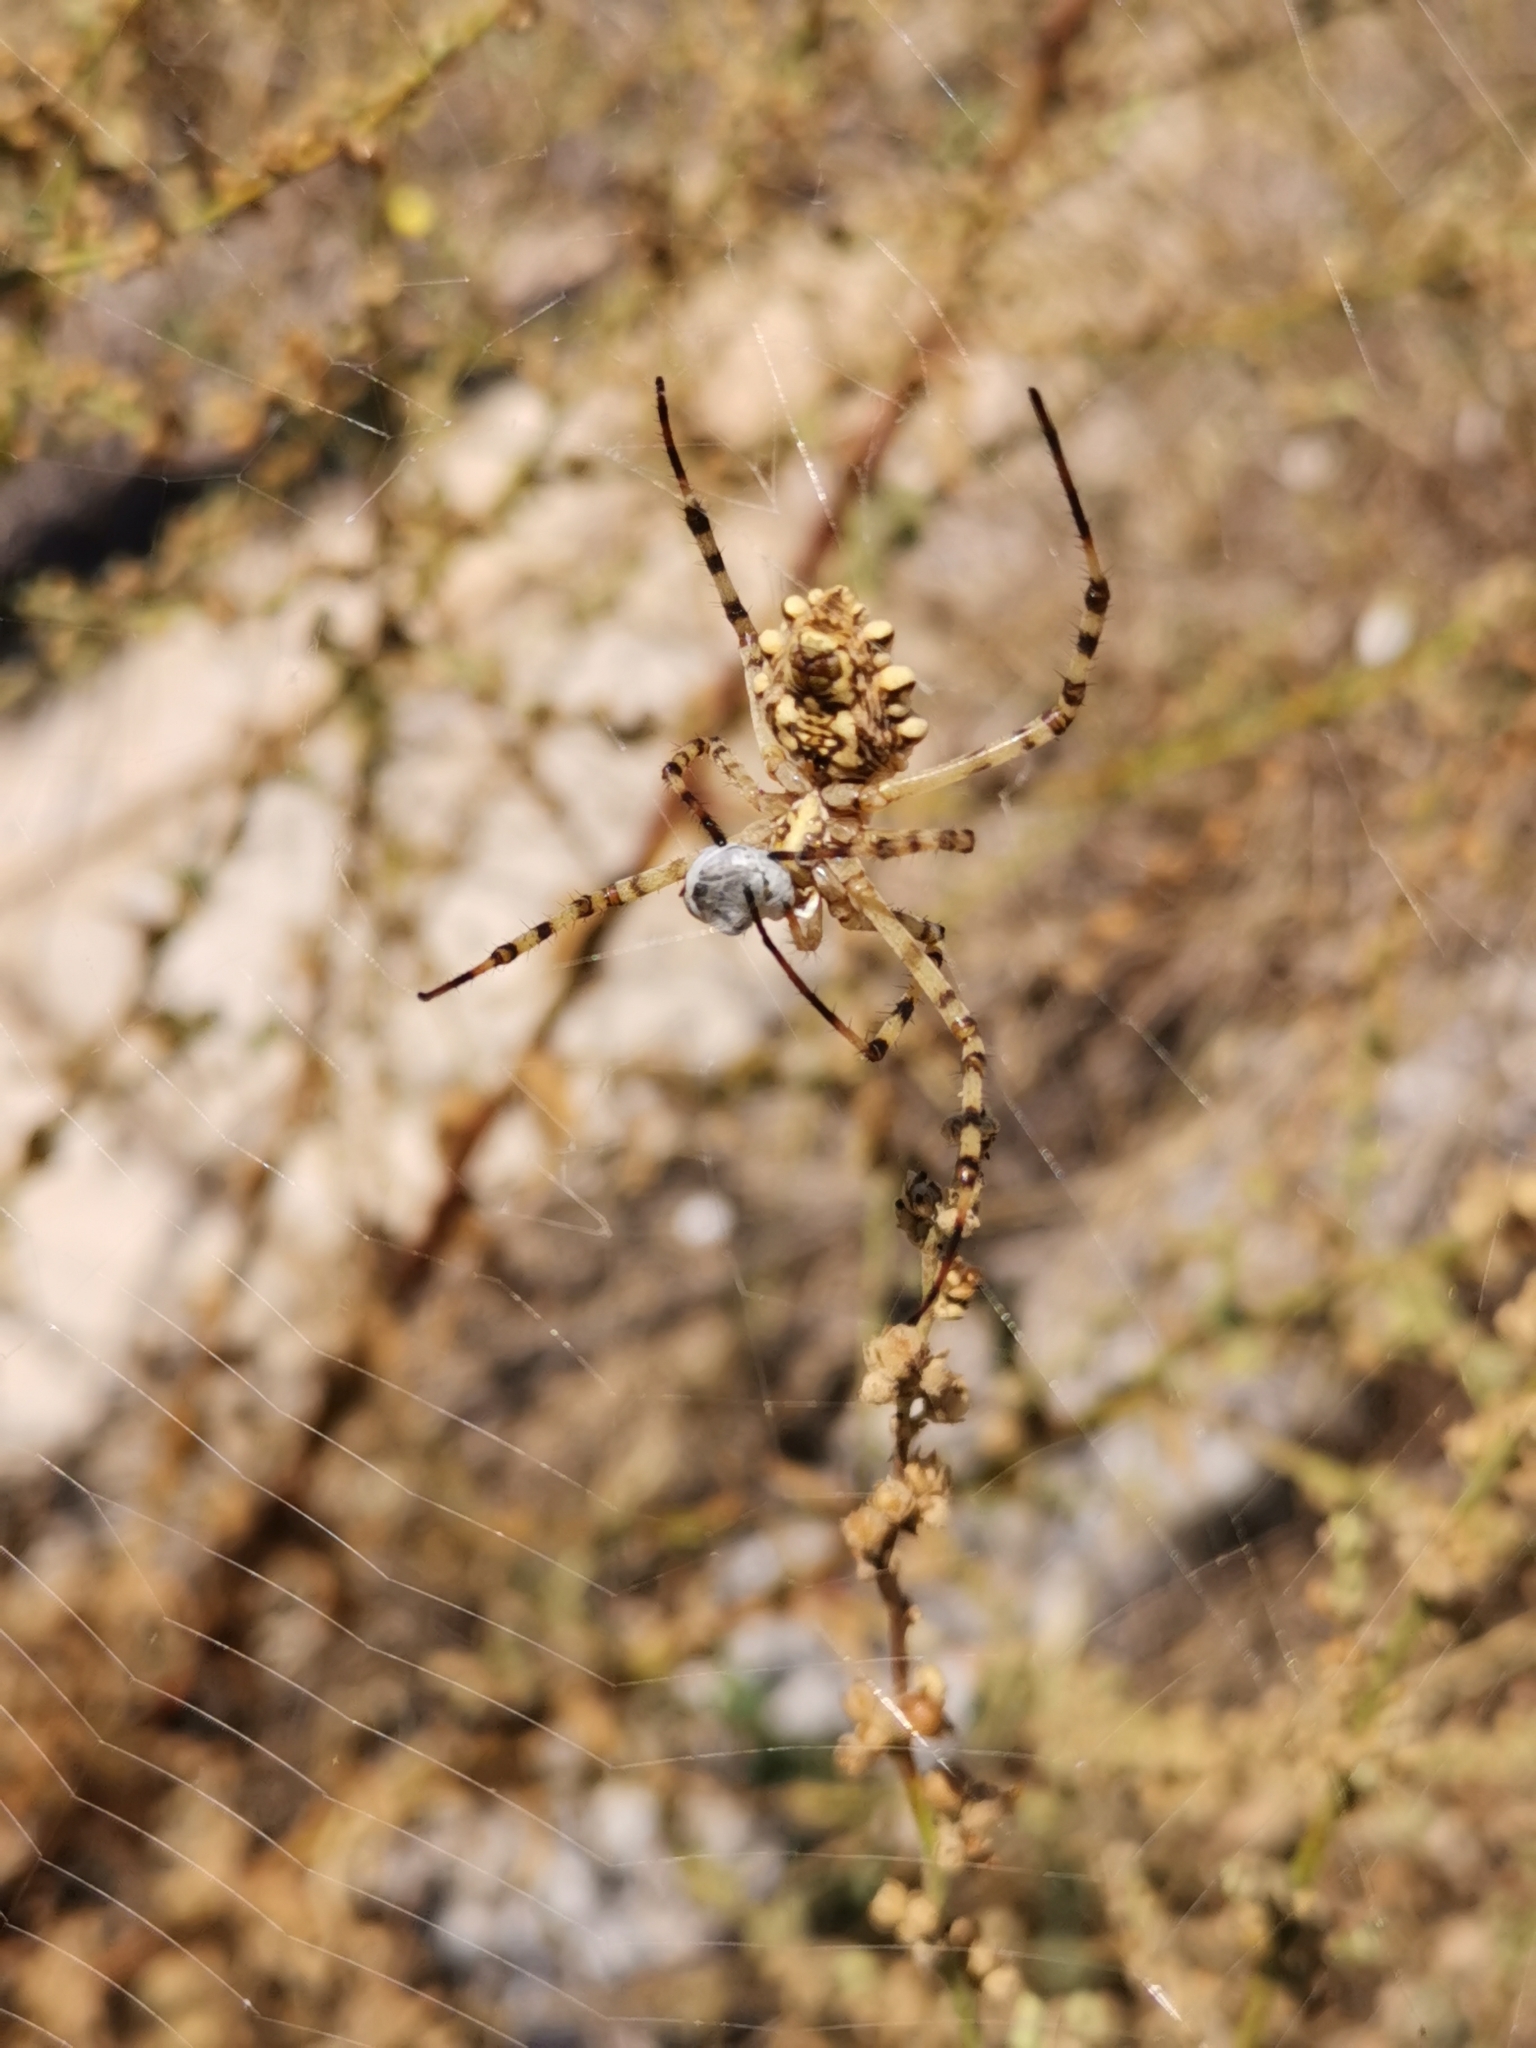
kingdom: Animalia
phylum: Arthropoda
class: Arachnida
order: Araneae
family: Araneidae
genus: Argiope
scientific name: Argiope lobata
